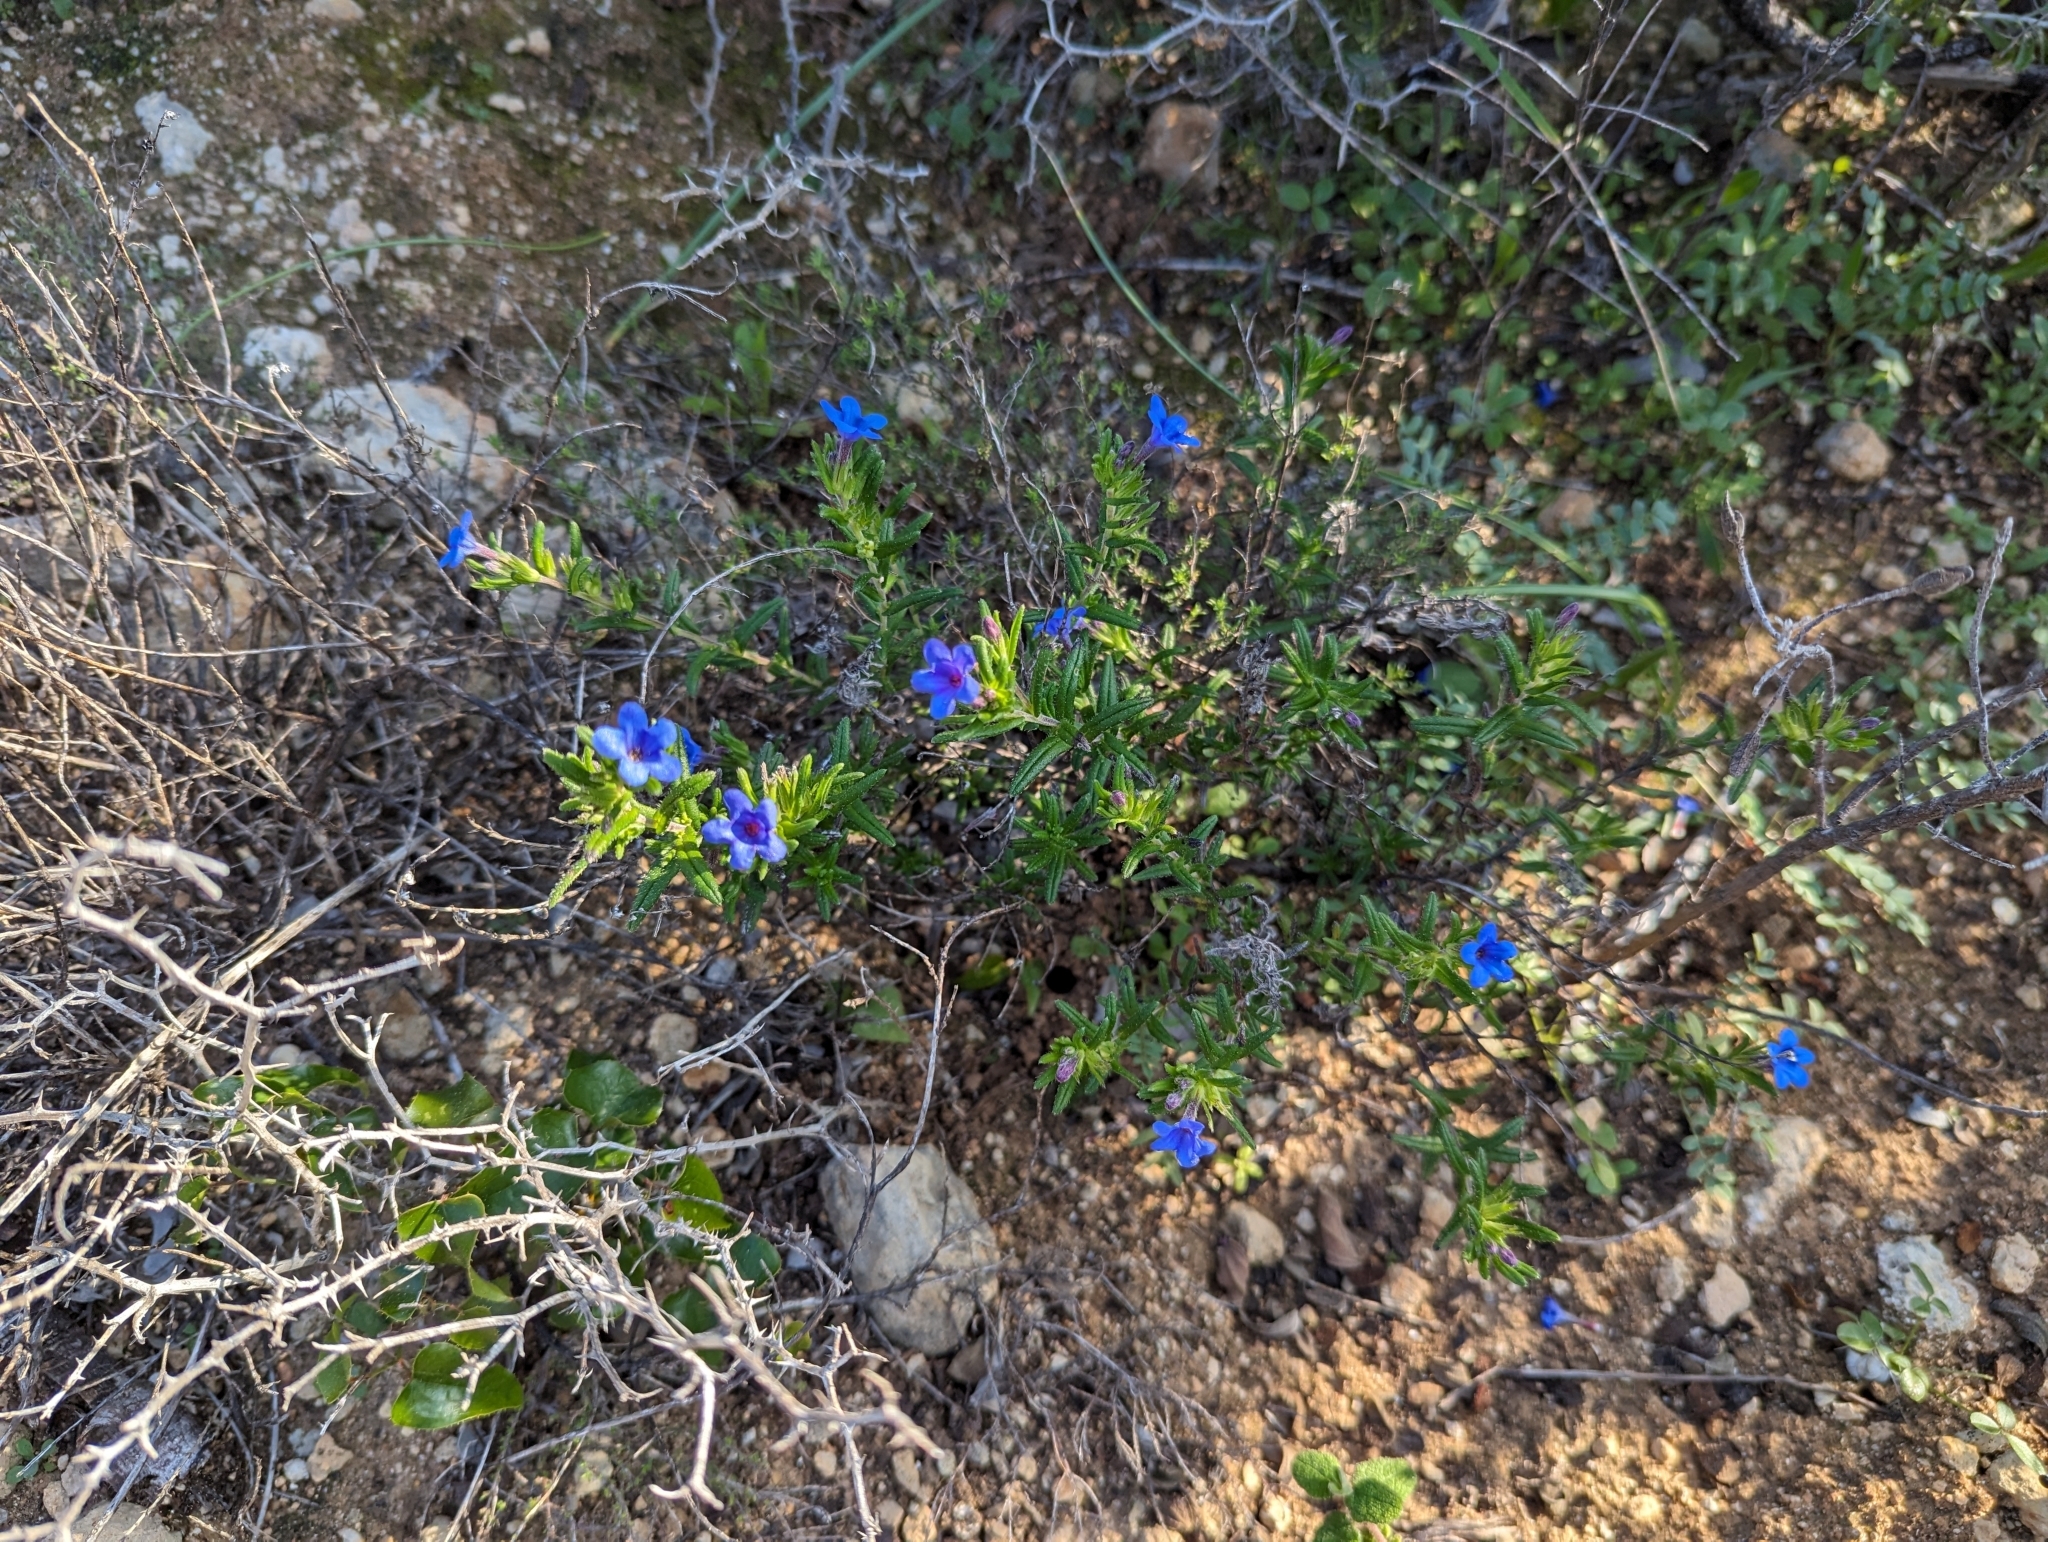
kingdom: Plantae
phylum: Tracheophyta
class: Magnoliopsida
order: Boraginales
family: Boraginaceae
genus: Glandora
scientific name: Glandora prostrata
